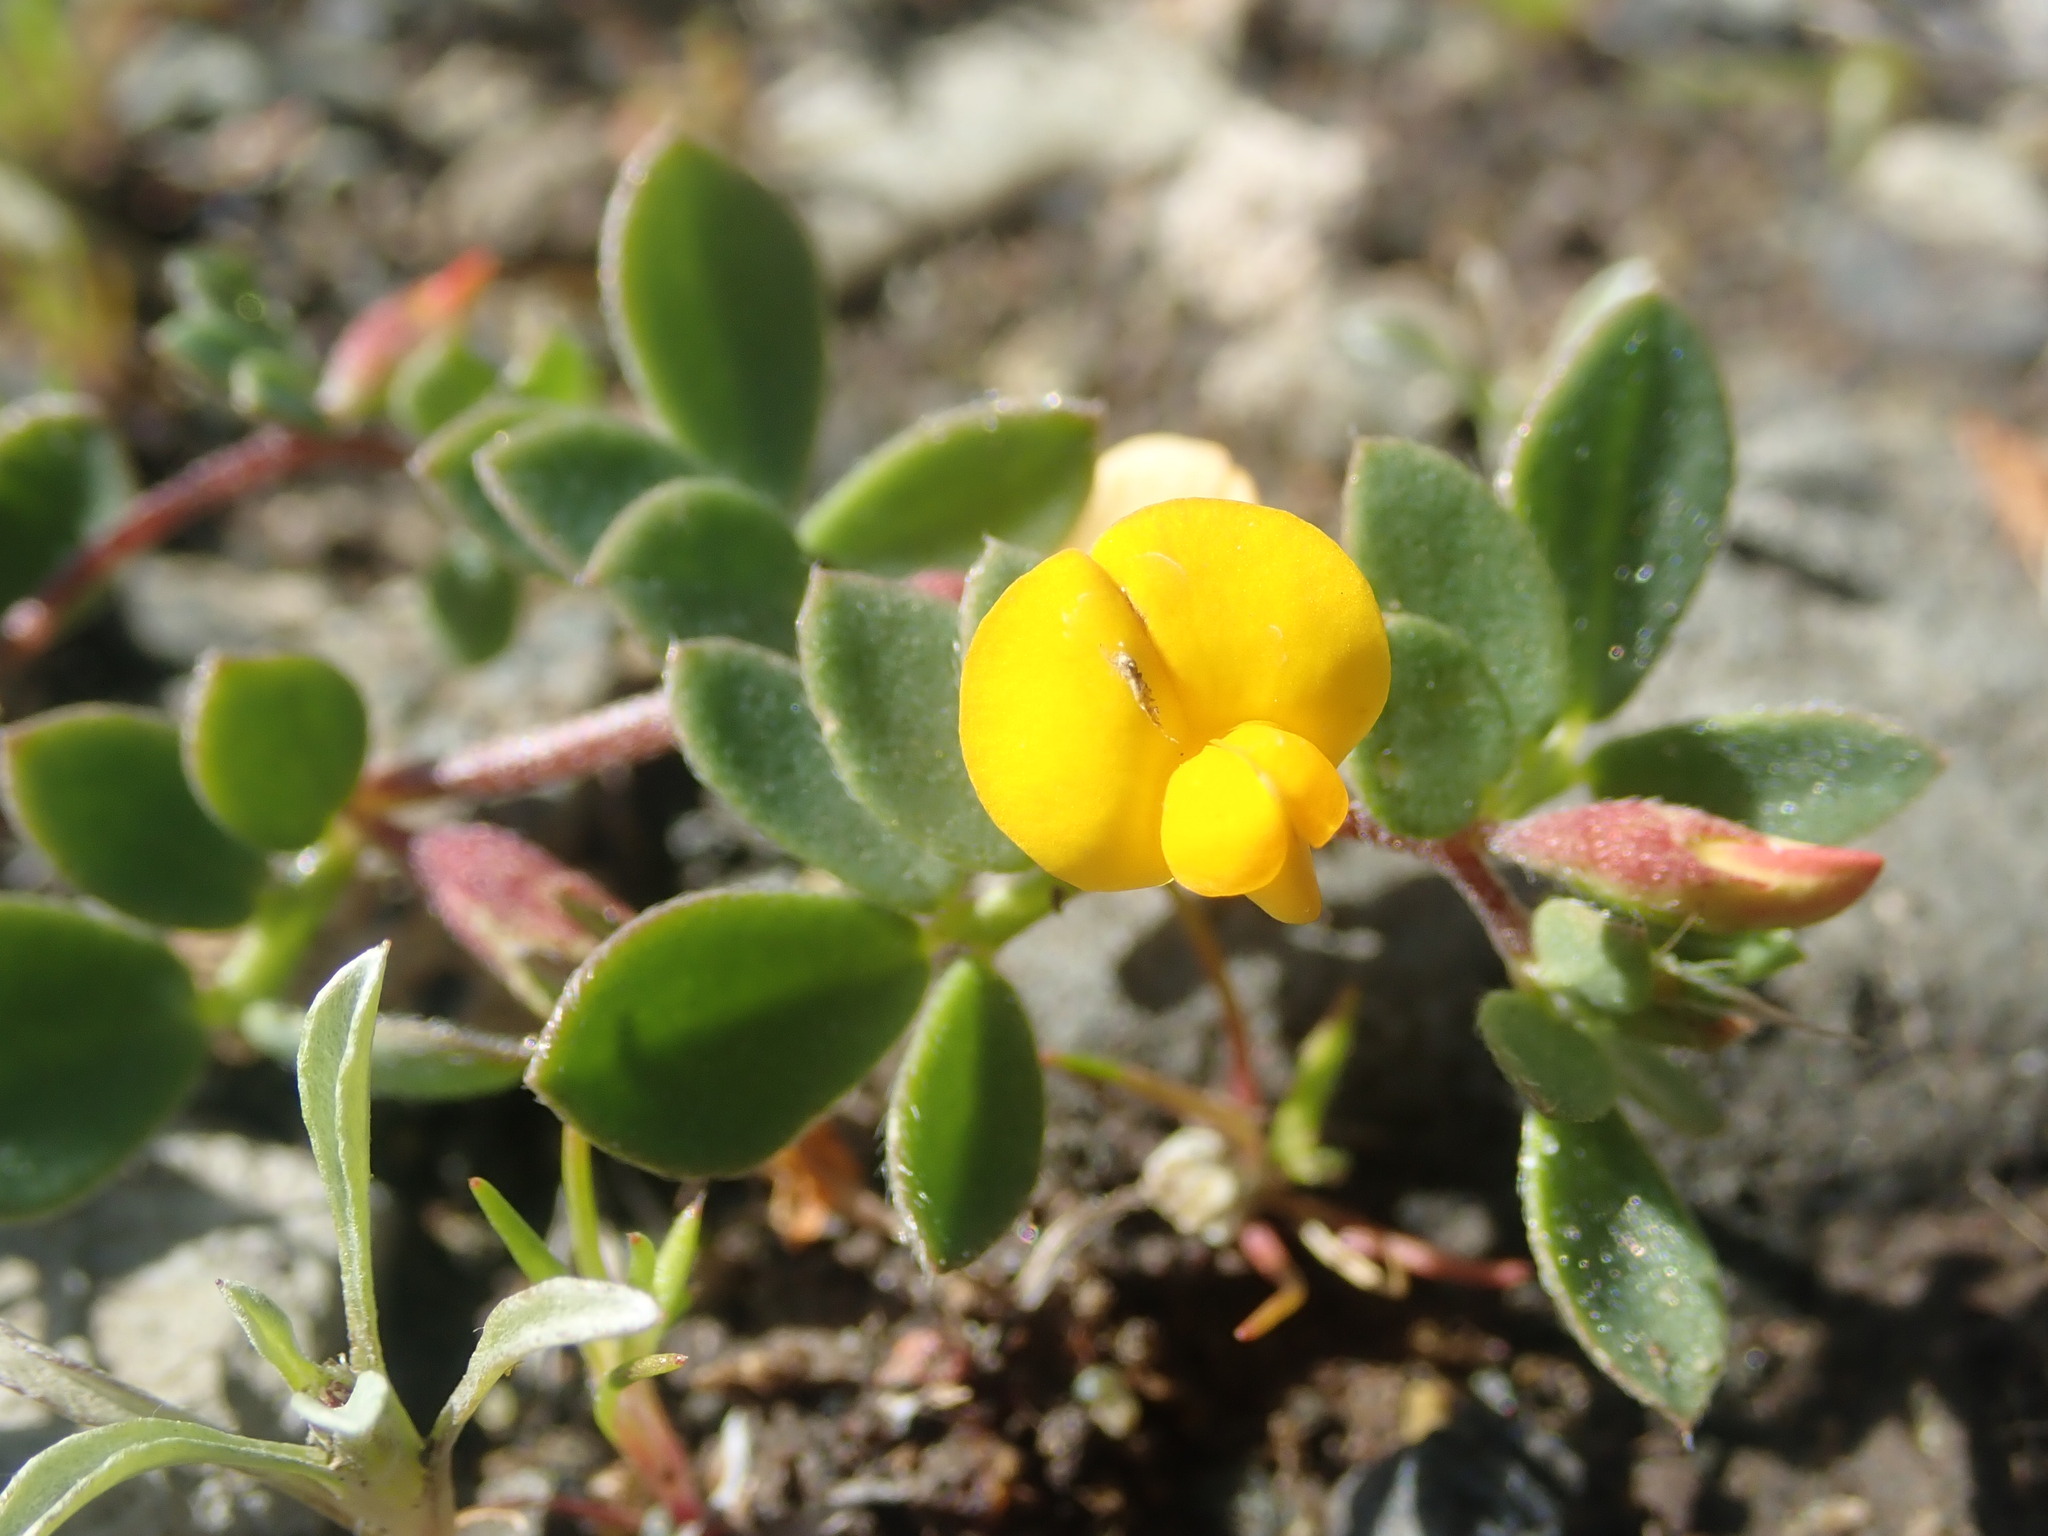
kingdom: Plantae
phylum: Tracheophyta
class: Magnoliopsida
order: Fabales
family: Fabaceae
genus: Acmispon
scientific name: Acmispon wrangelianus
